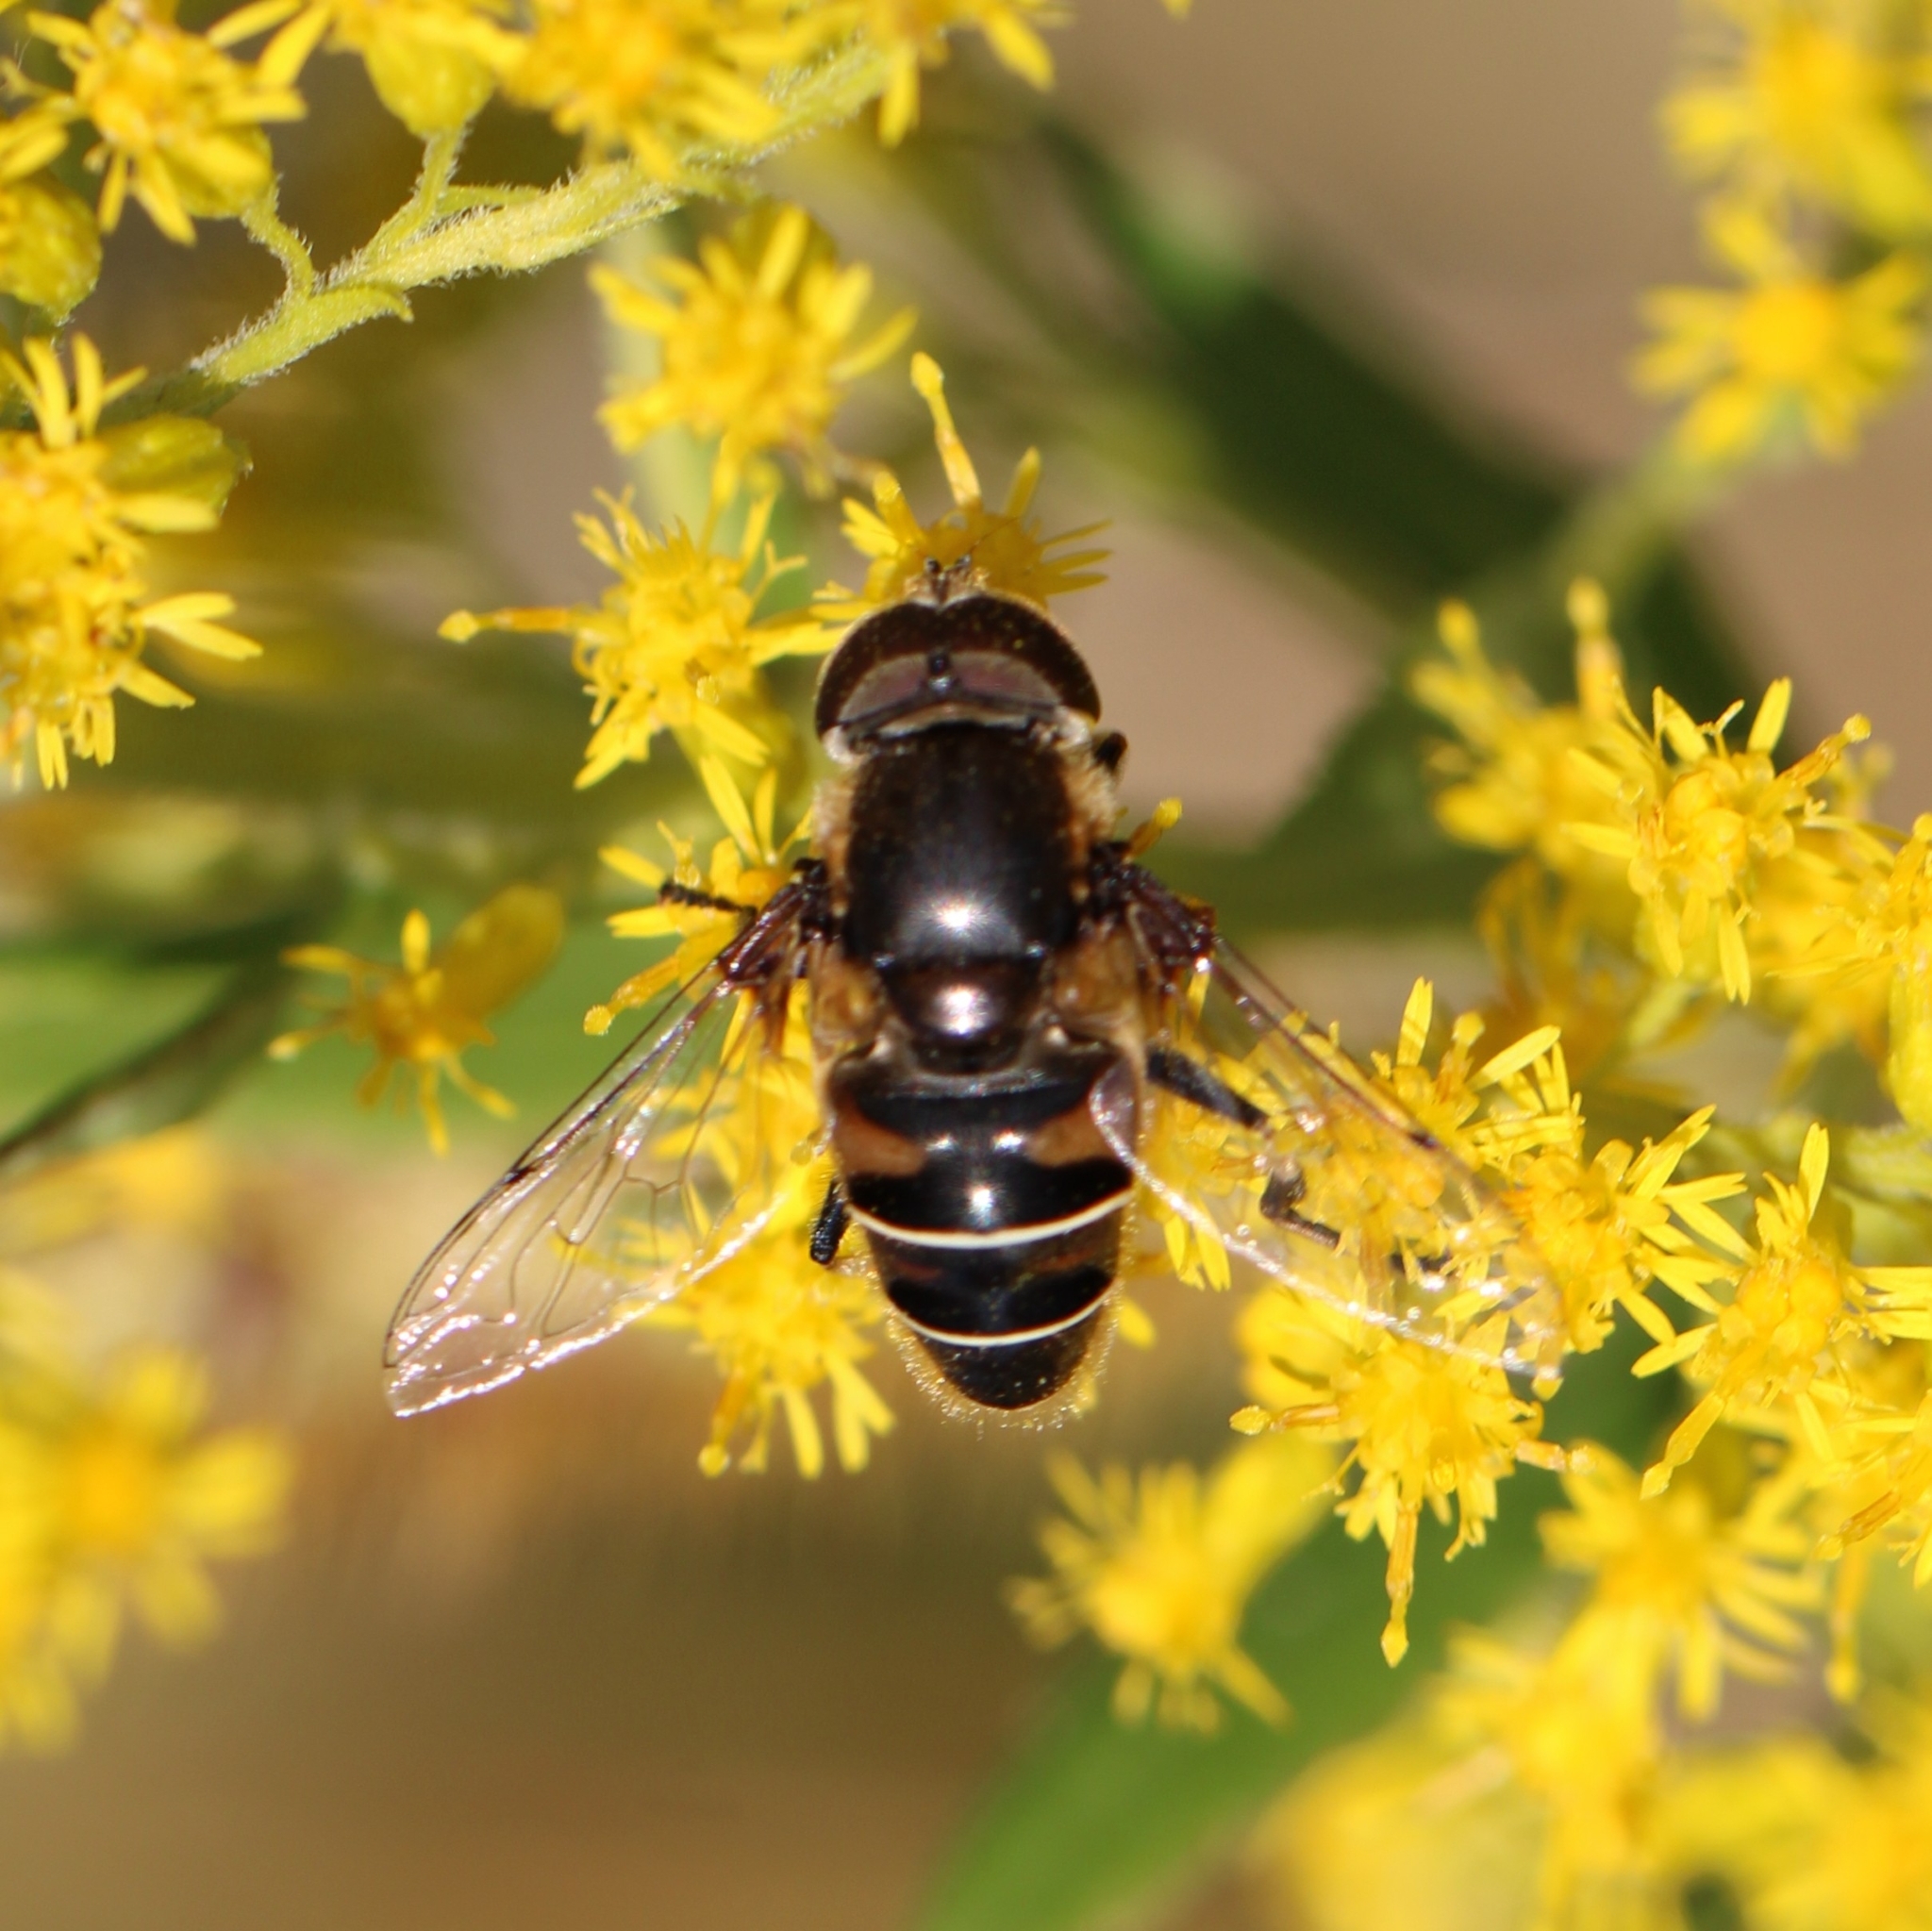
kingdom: Animalia
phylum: Arthropoda
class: Insecta
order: Diptera
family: Syrphidae
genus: Eristalis
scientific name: Eristalis dimidiata
